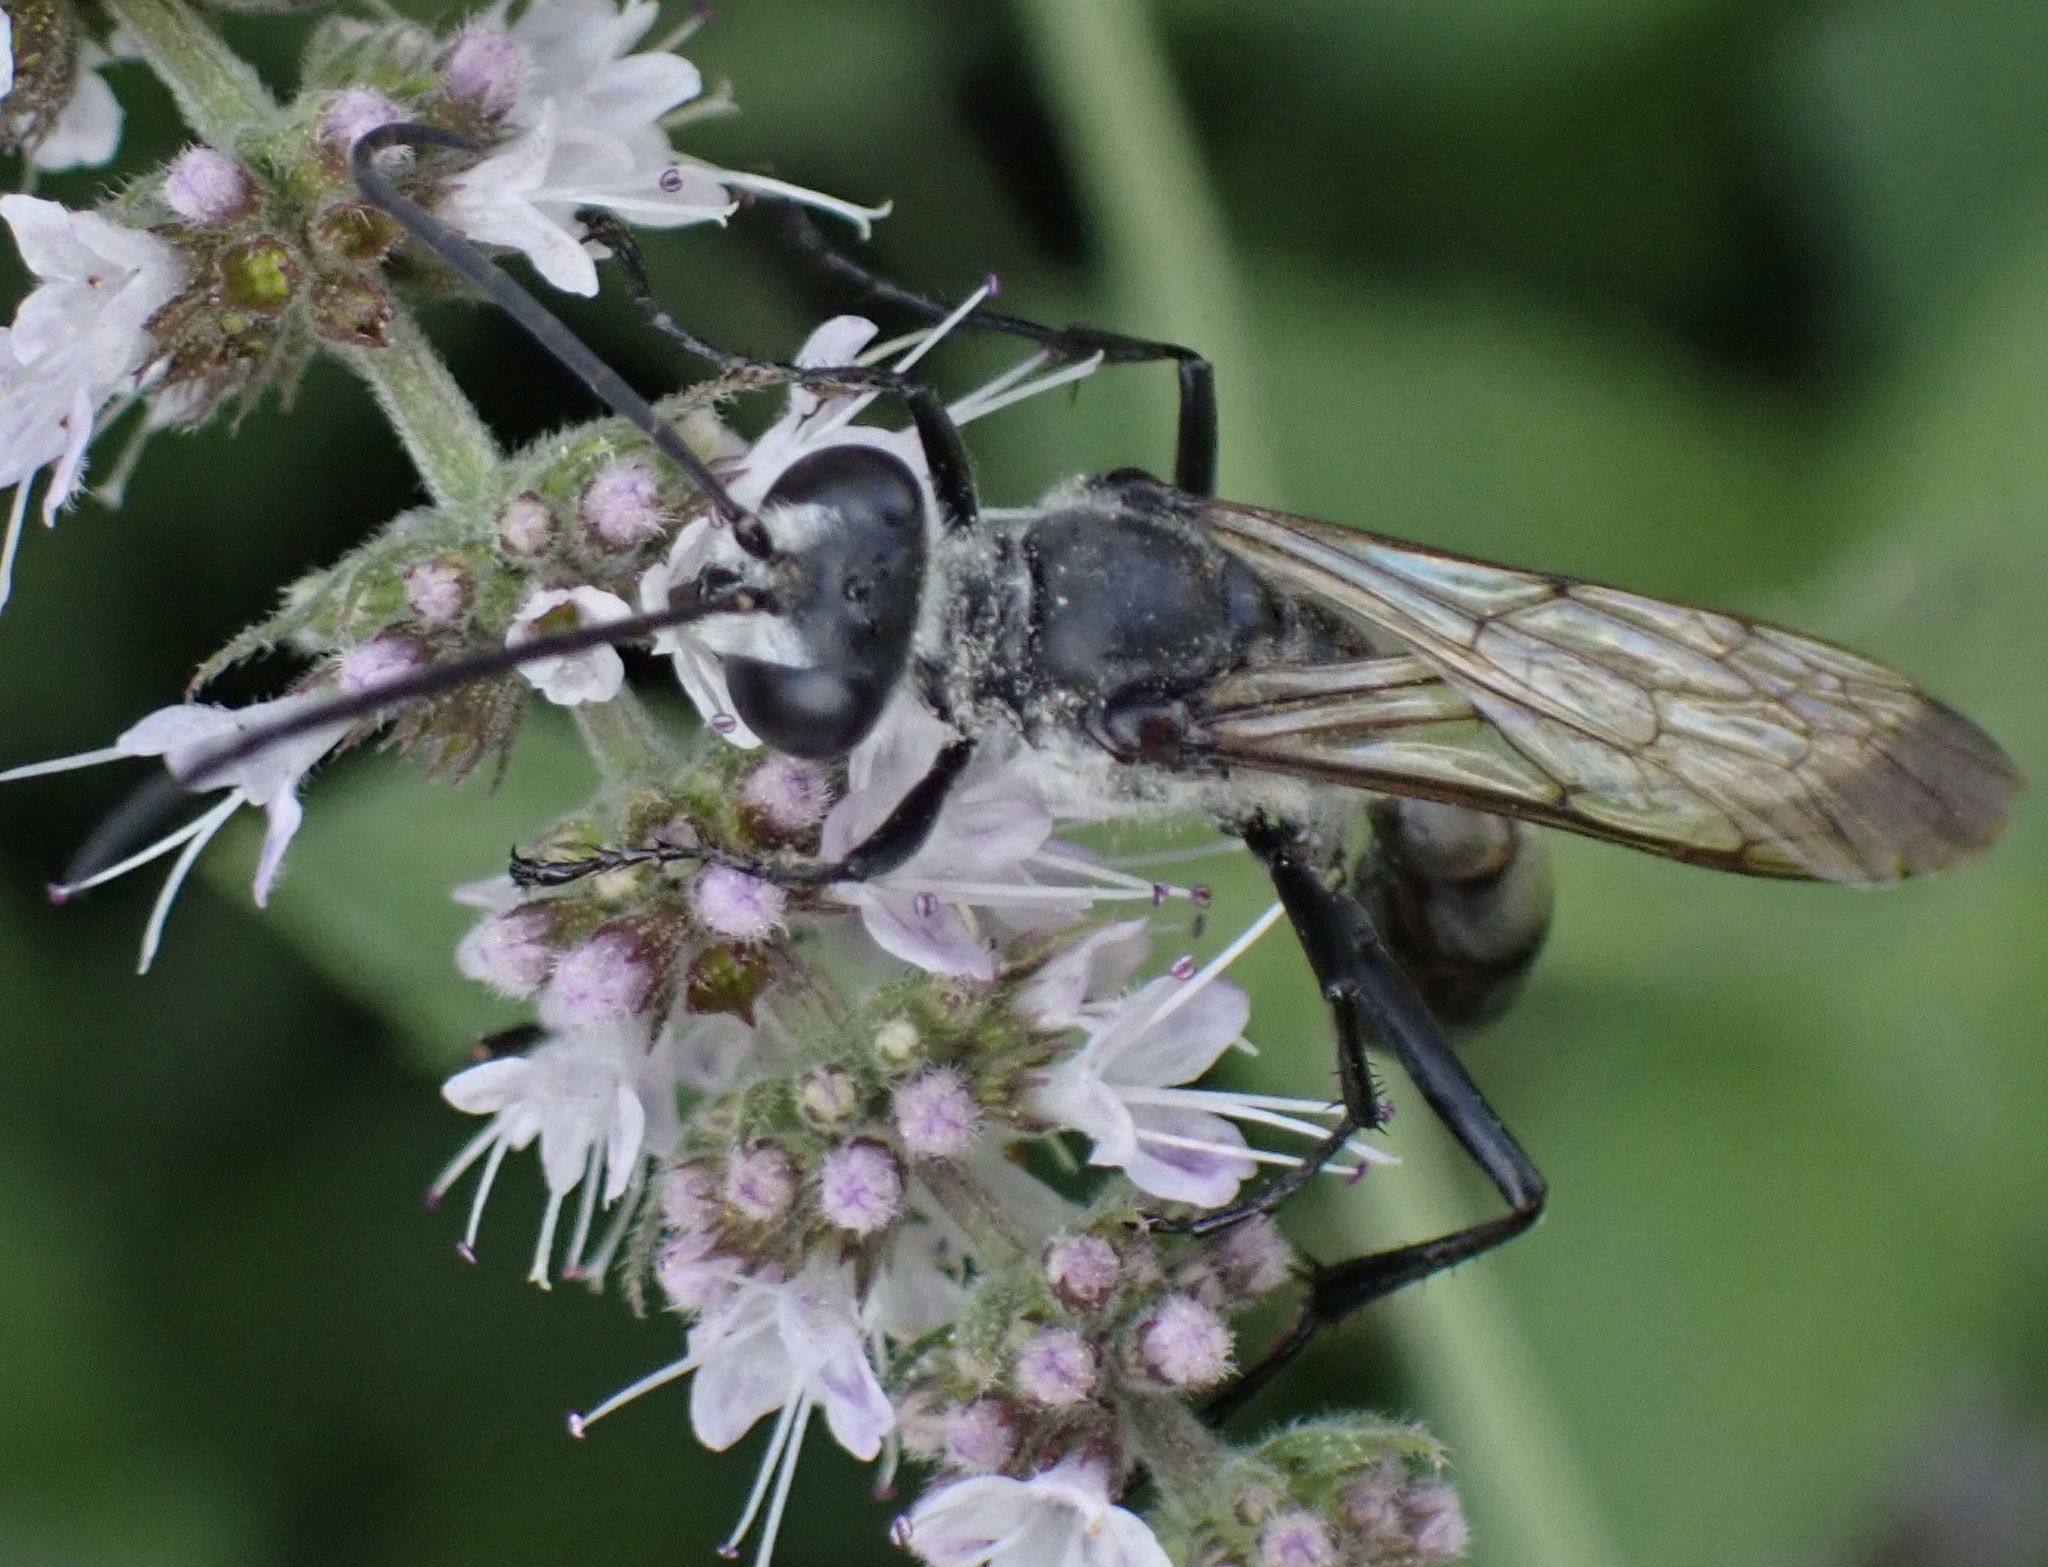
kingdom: Animalia
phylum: Arthropoda
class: Insecta
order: Hymenoptera
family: Sphecidae
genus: Sphex
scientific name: Sphex pruinosus
